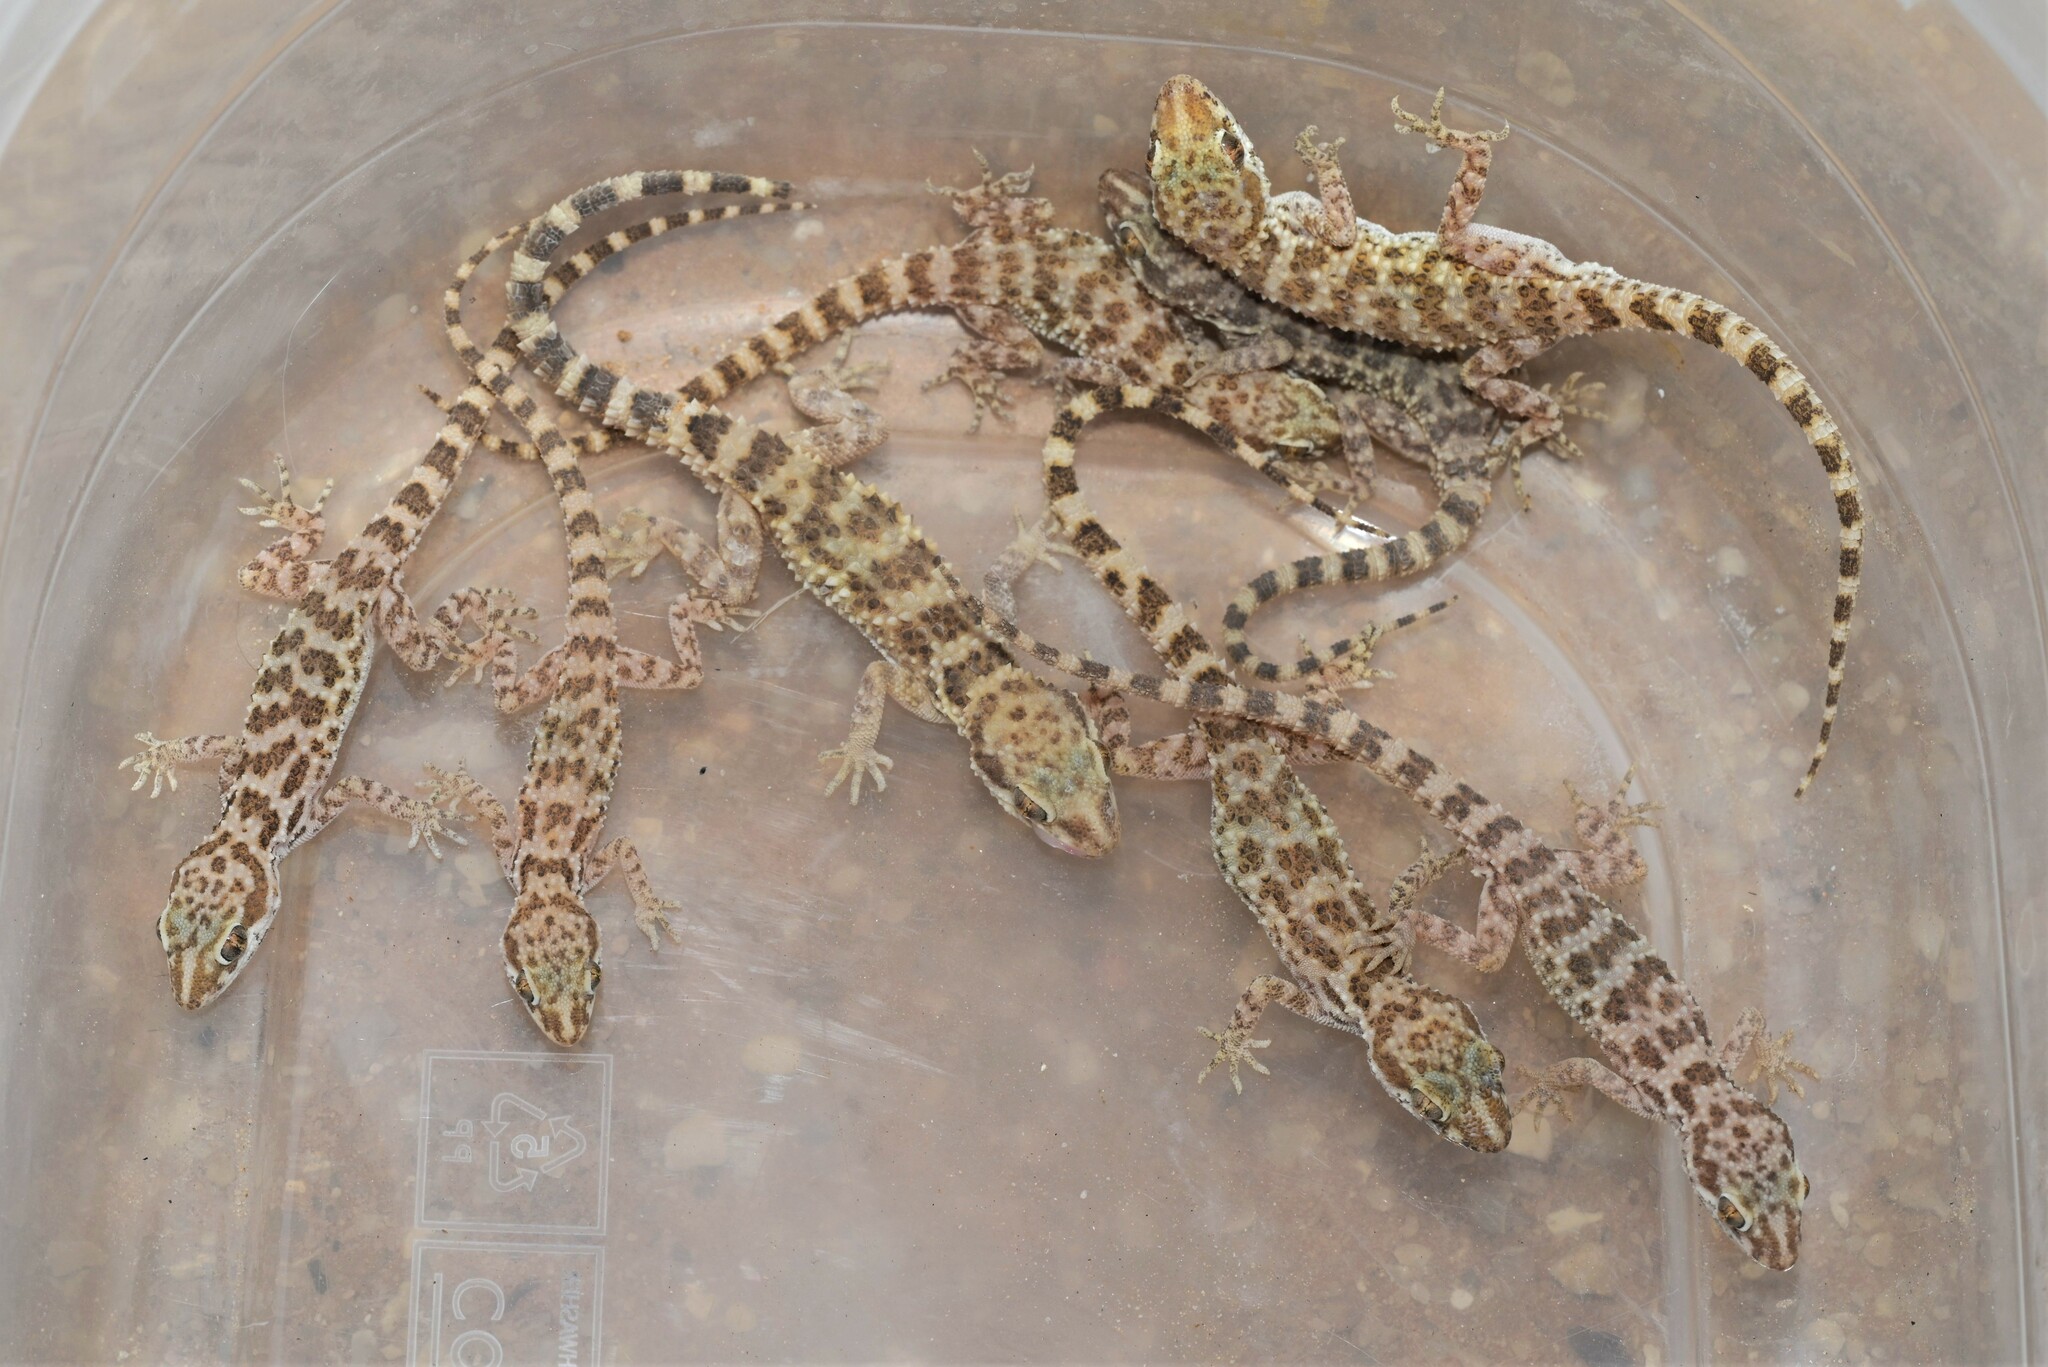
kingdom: Animalia
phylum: Chordata
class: Squamata
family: Gekkonidae
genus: Bunopus
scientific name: Bunopus tuberculatus
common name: Southern tuberculated gecko
